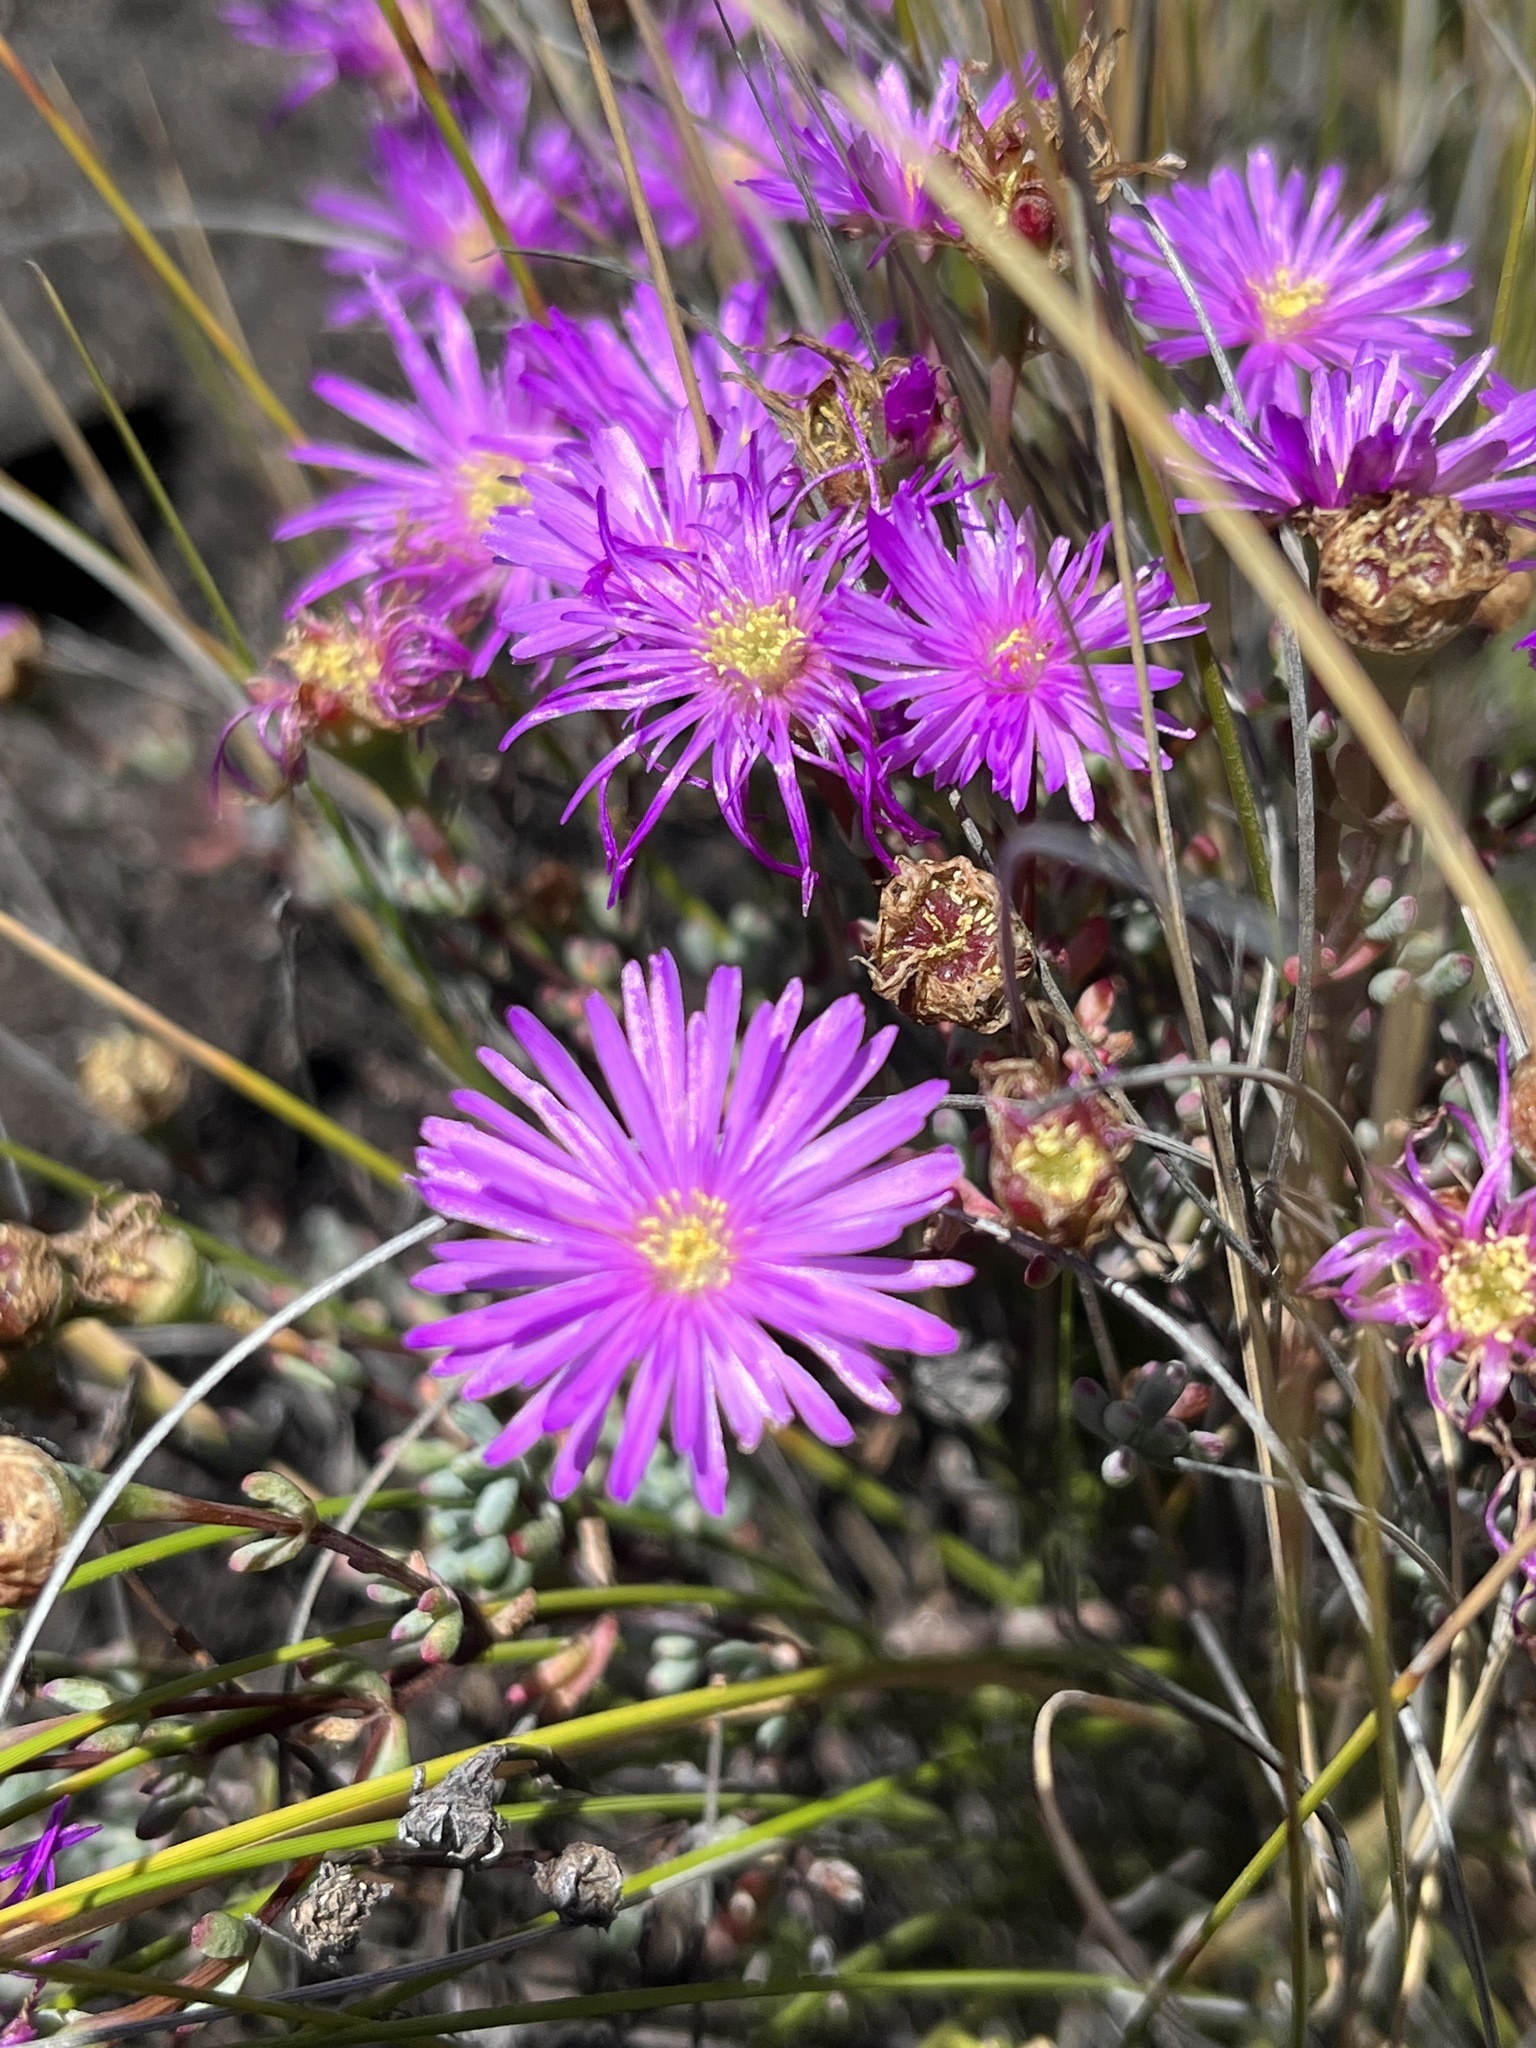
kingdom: Plantae
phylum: Tracheophyta
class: Magnoliopsida
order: Caryophyllales
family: Aizoaceae
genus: Lampranthus
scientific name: Lampranthus swartbergensis
